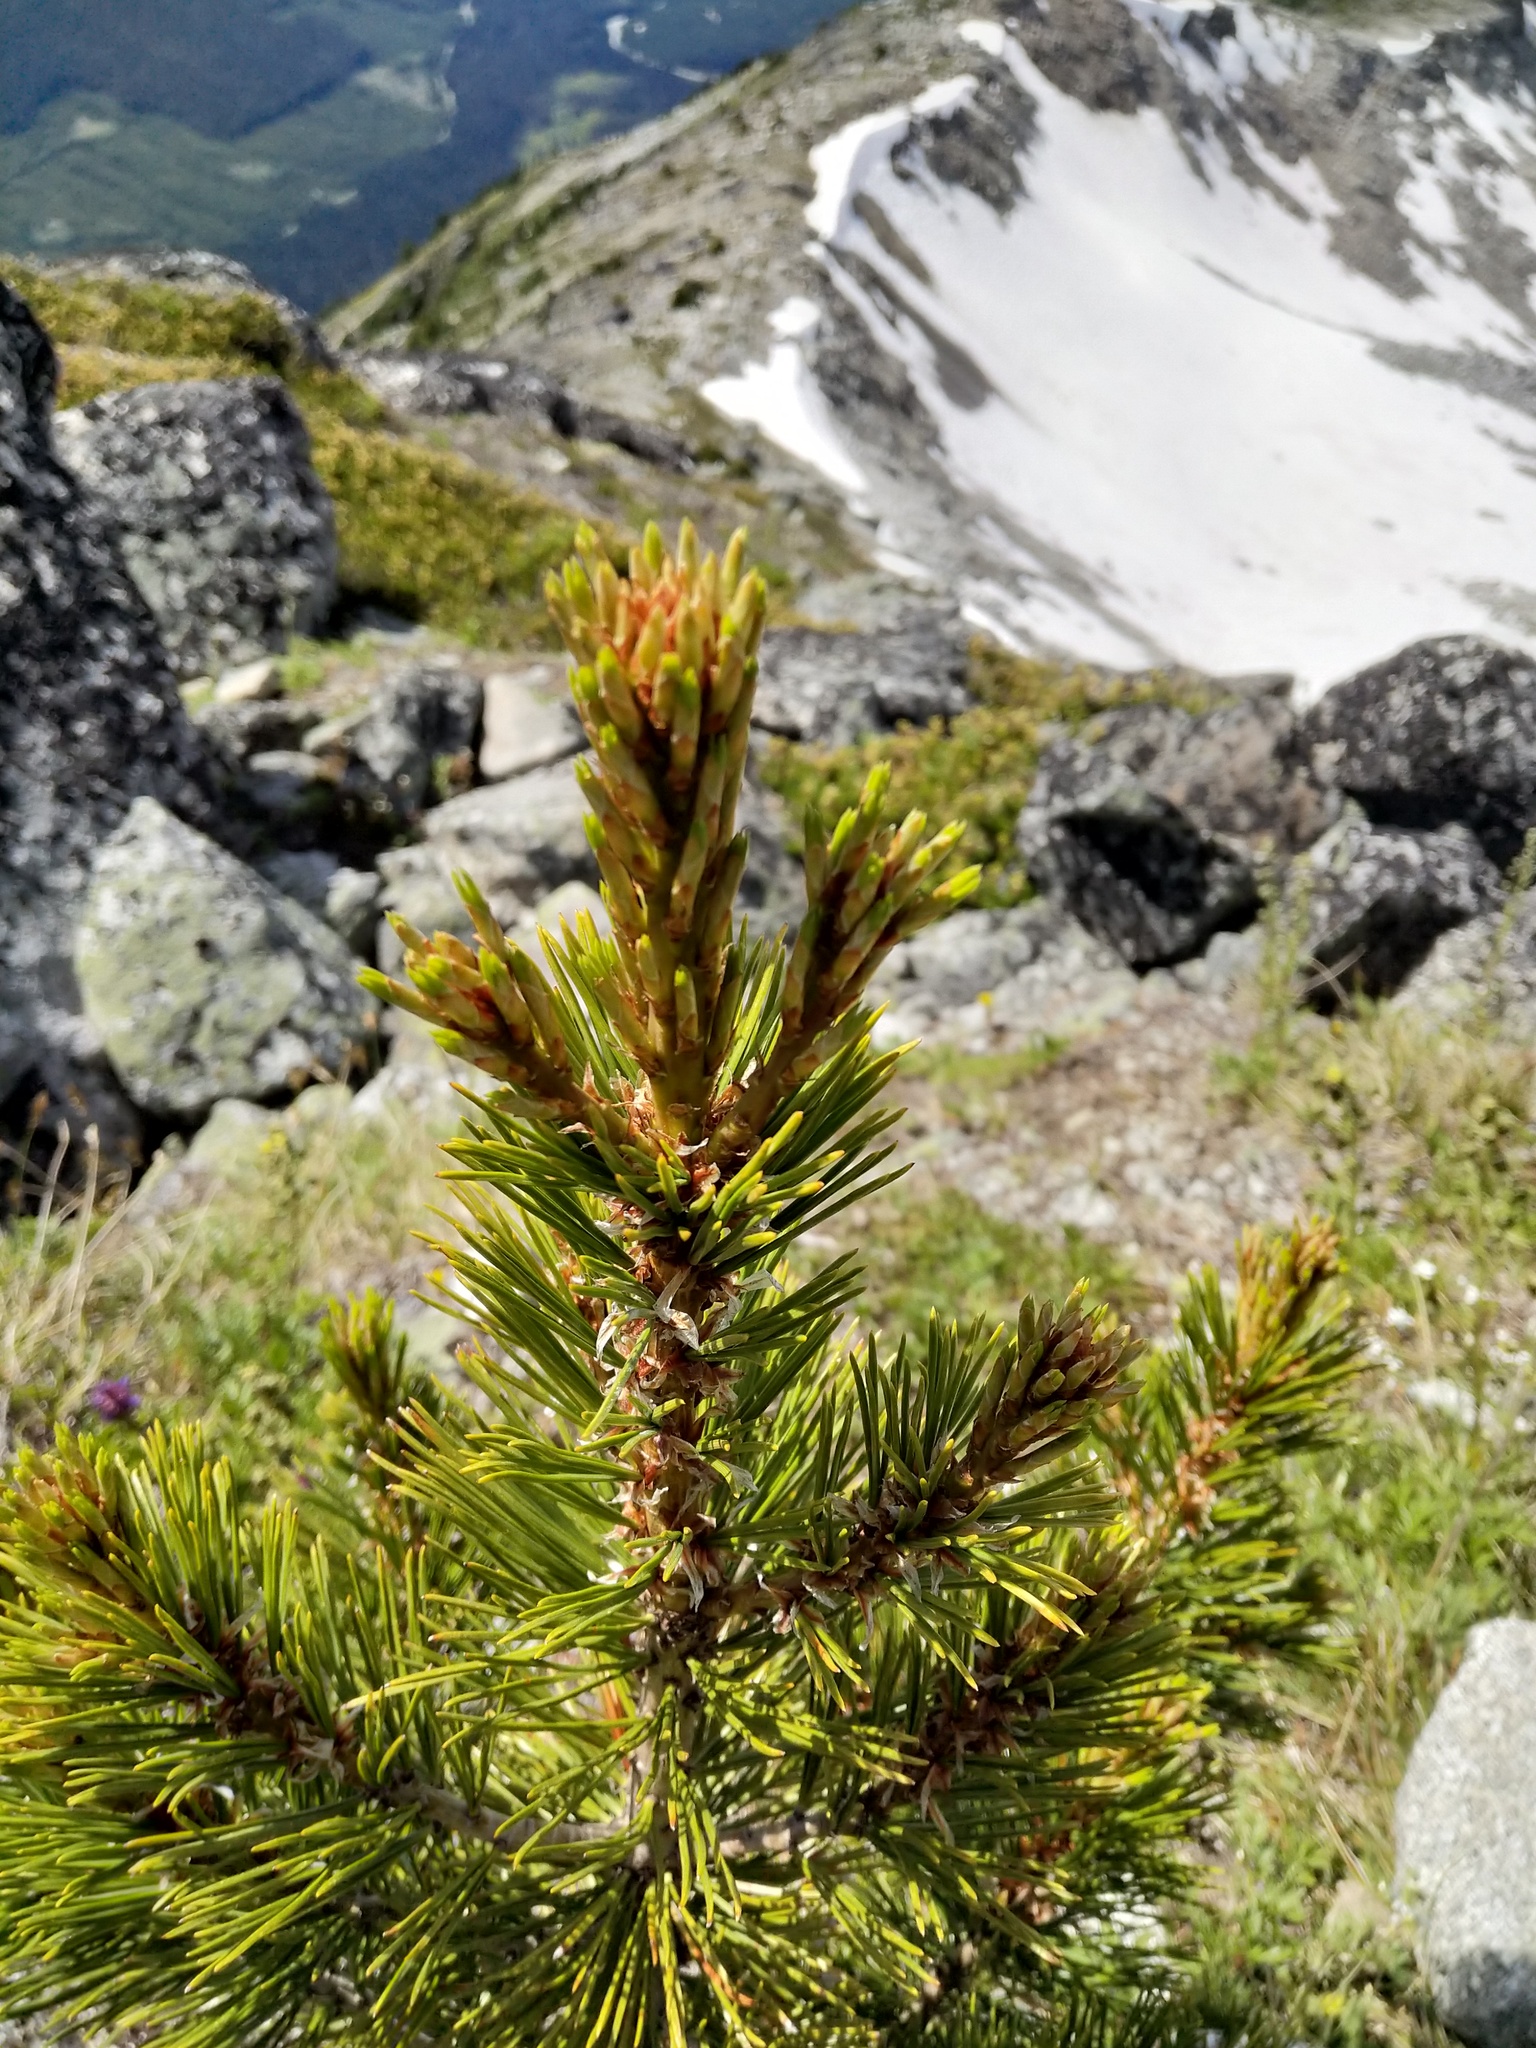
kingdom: Plantae
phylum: Tracheophyta
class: Pinopsida
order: Pinales
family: Pinaceae
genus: Pinus
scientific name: Pinus albicaulis
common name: Whitebark pine
